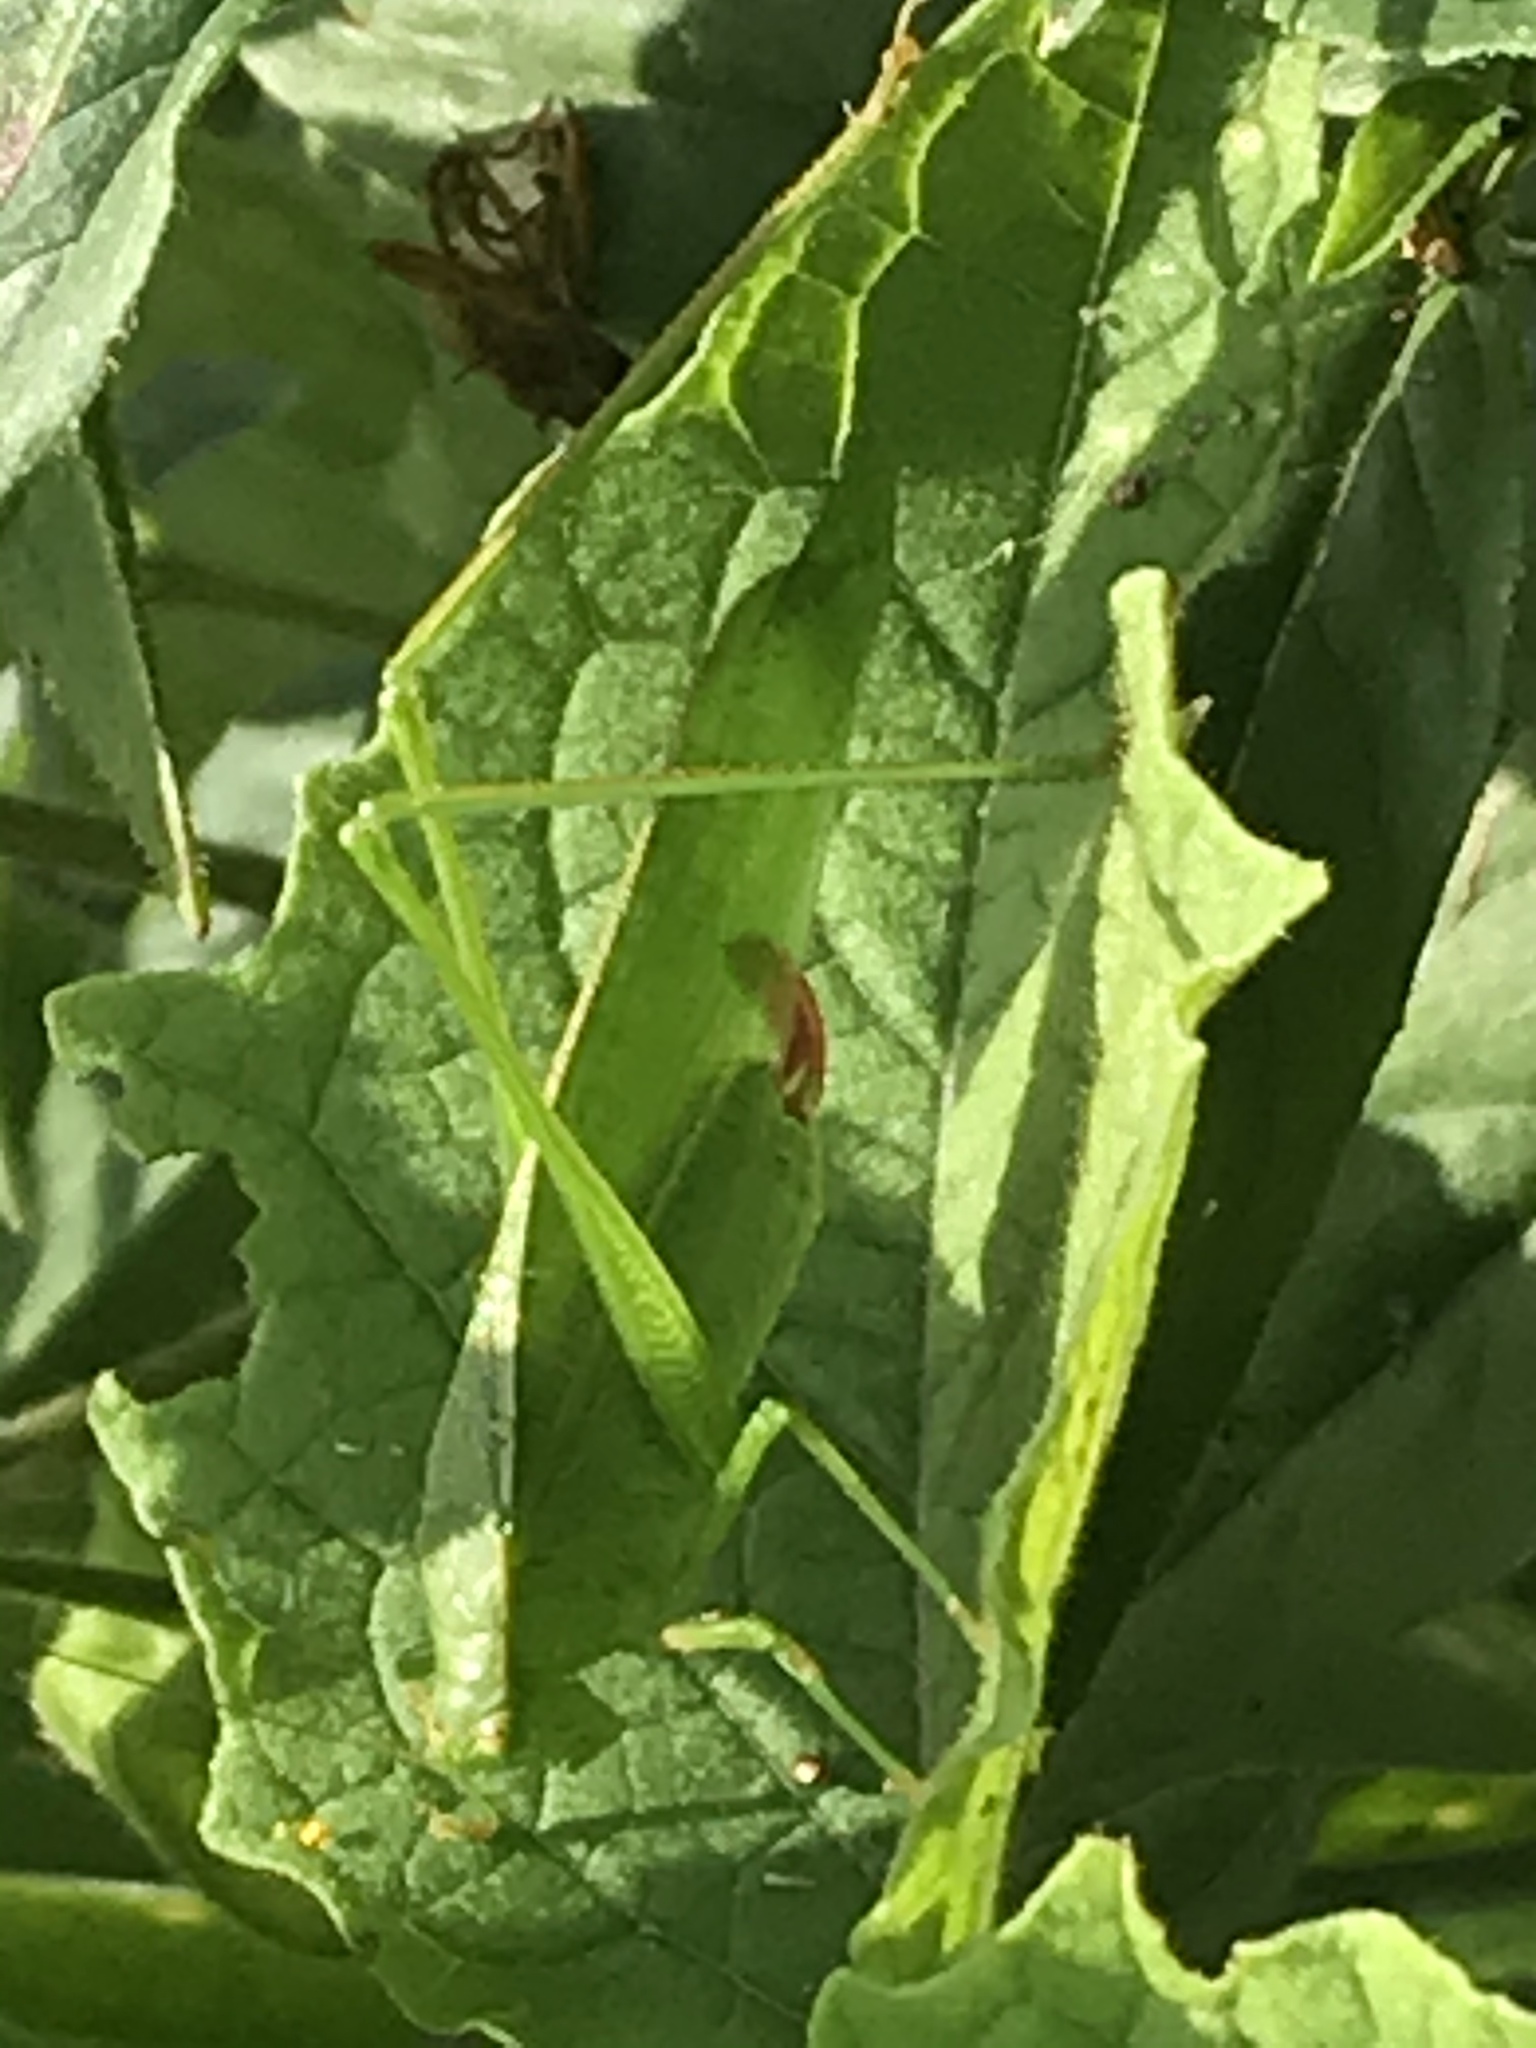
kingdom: Animalia
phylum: Arthropoda
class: Insecta
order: Orthoptera
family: Tettigoniidae
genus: Scudderia
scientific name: Scudderia furcata
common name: Fork-tailed bush katydid
